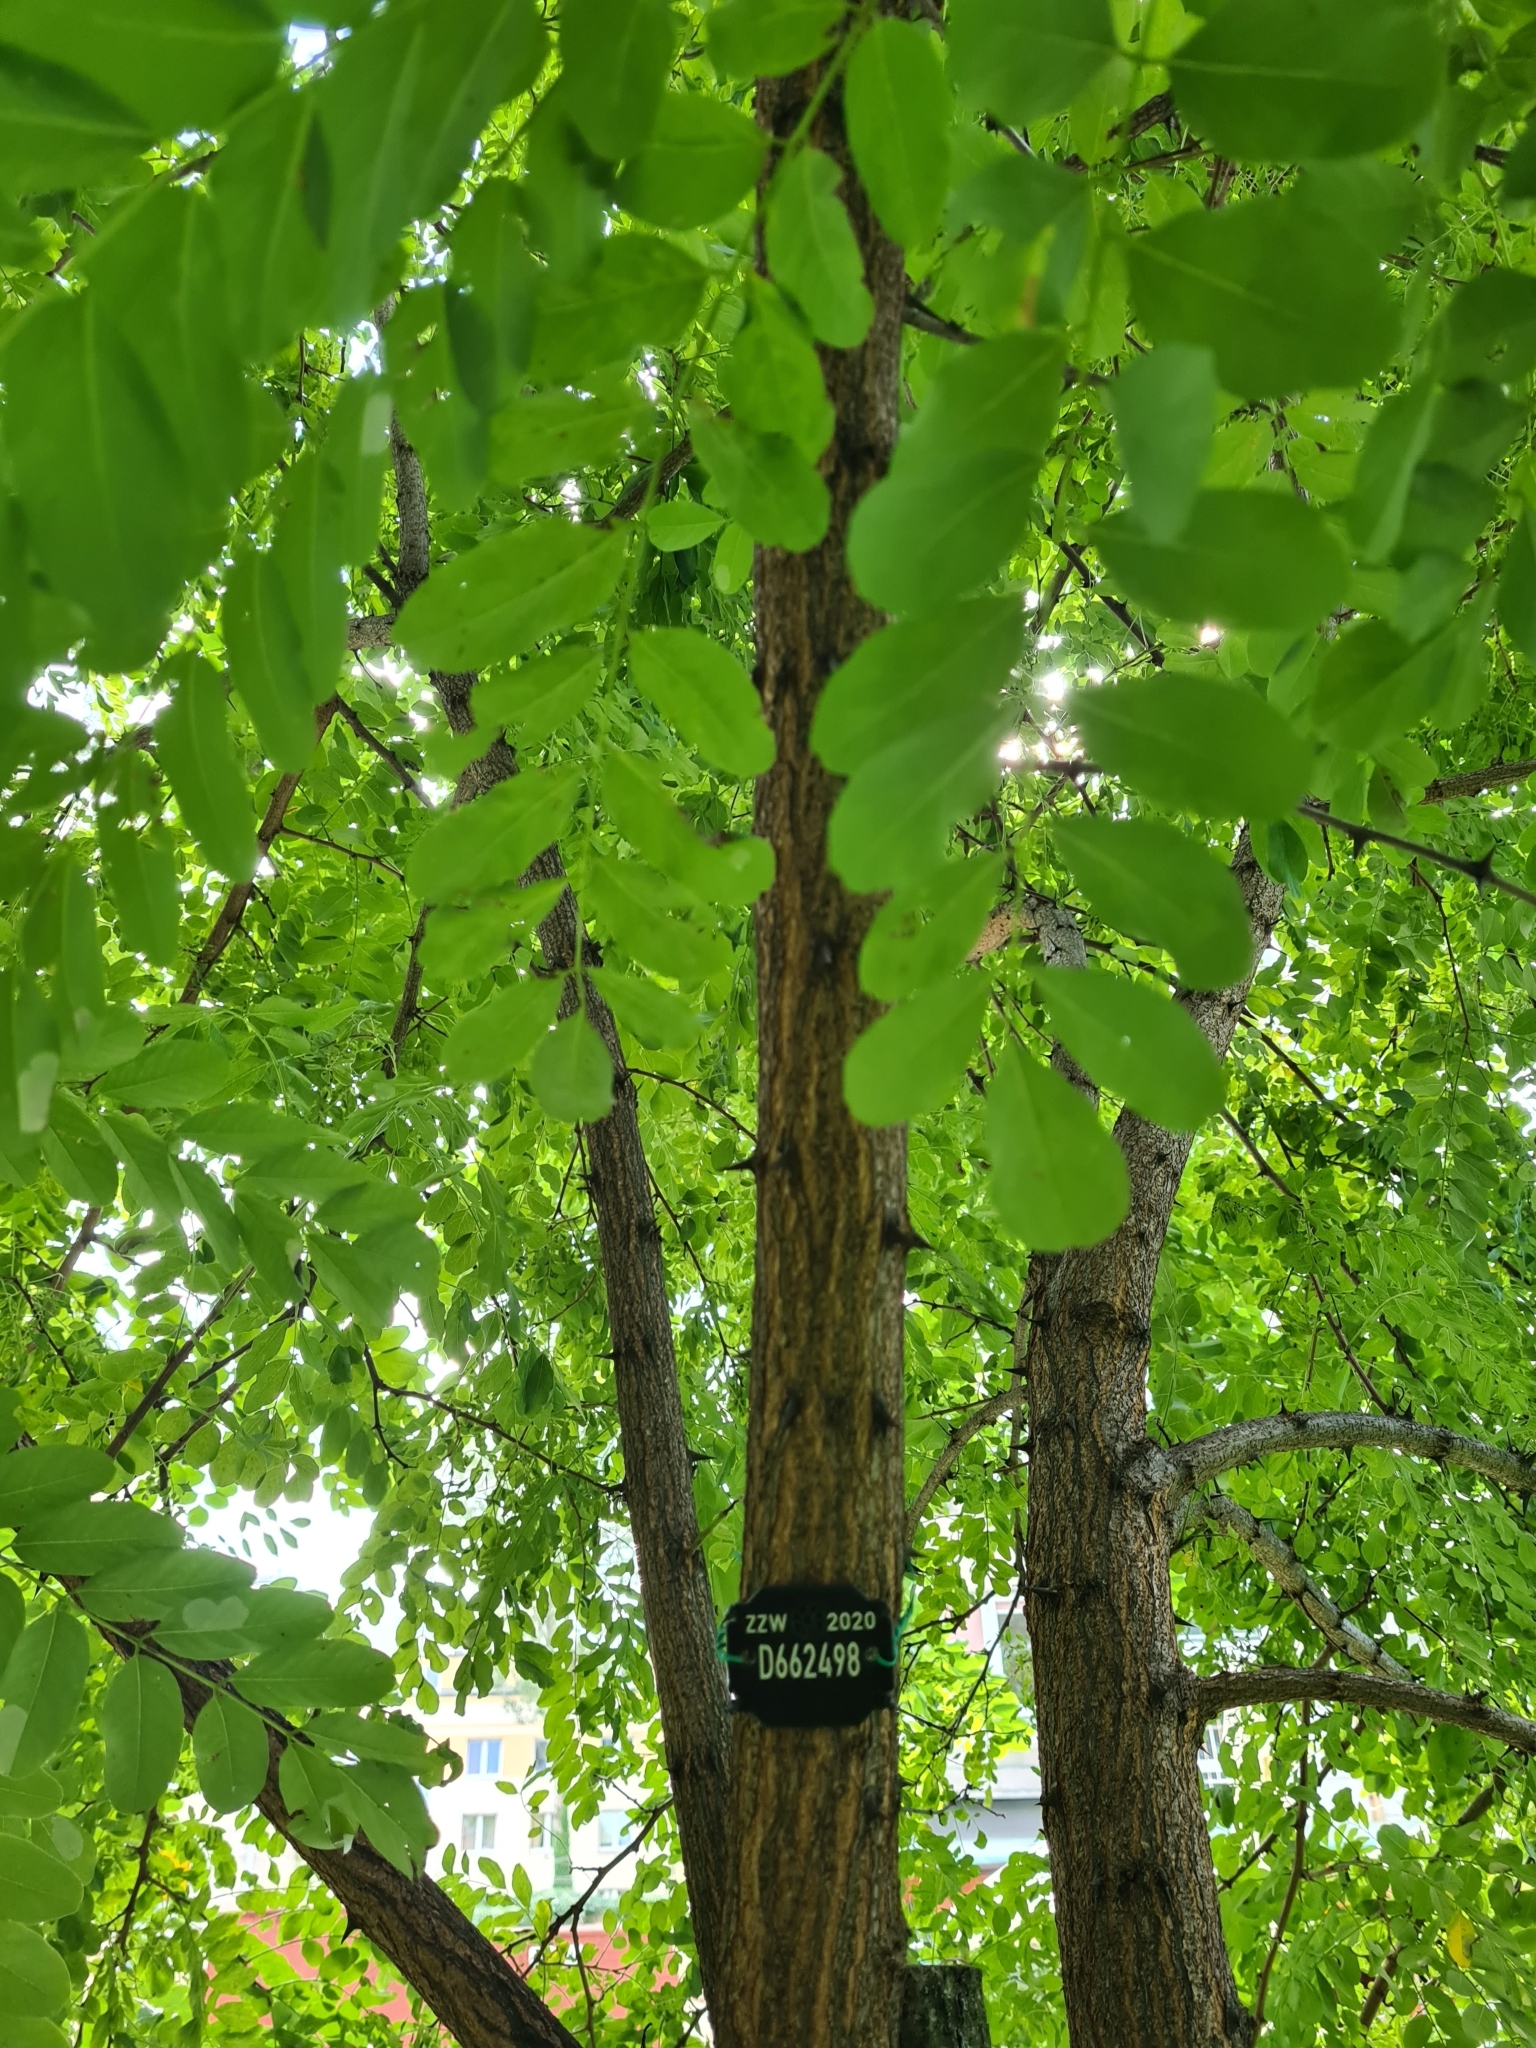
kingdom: Plantae
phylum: Tracheophyta
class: Magnoliopsida
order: Fabales
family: Fabaceae
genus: Robinia
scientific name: Robinia pseudoacacia
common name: Black locust
